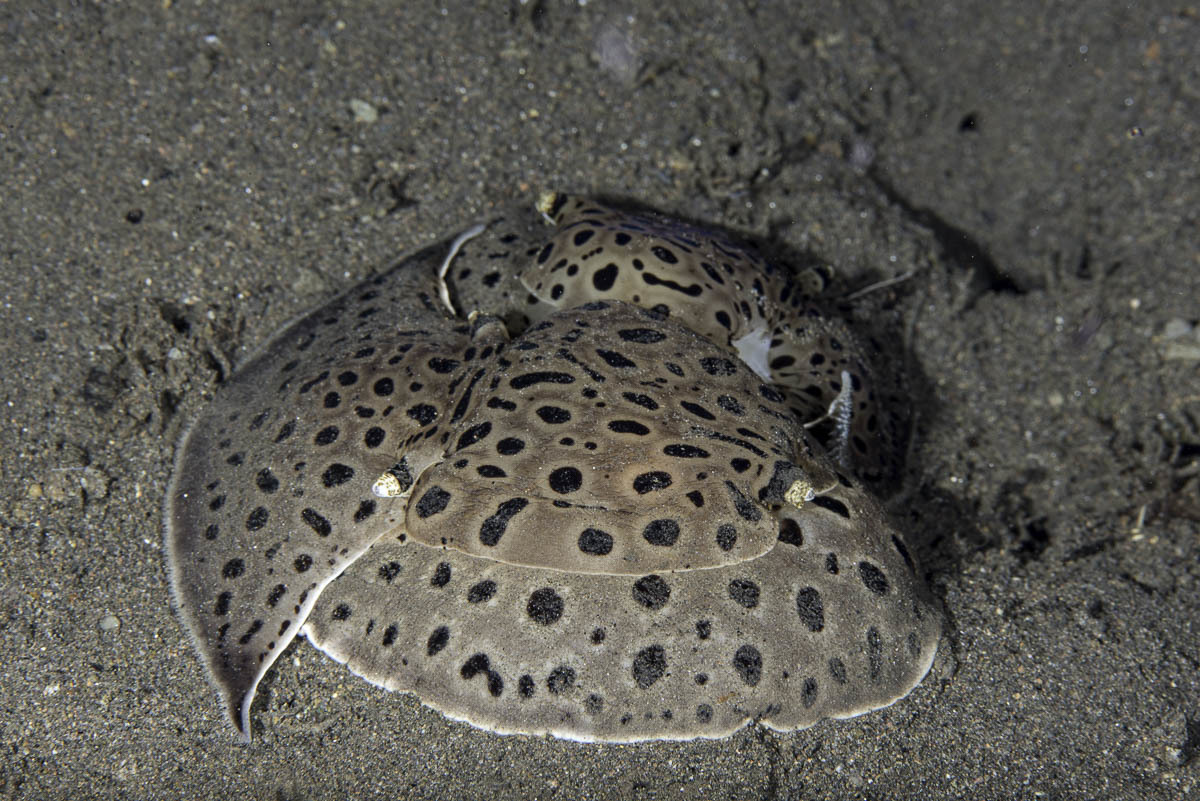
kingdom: Animalia
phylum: Mollusca
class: Gastropoda
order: Pleurobranchida
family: Pleurobranchaeidae
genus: Euselenops
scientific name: Euselenops luniceps
